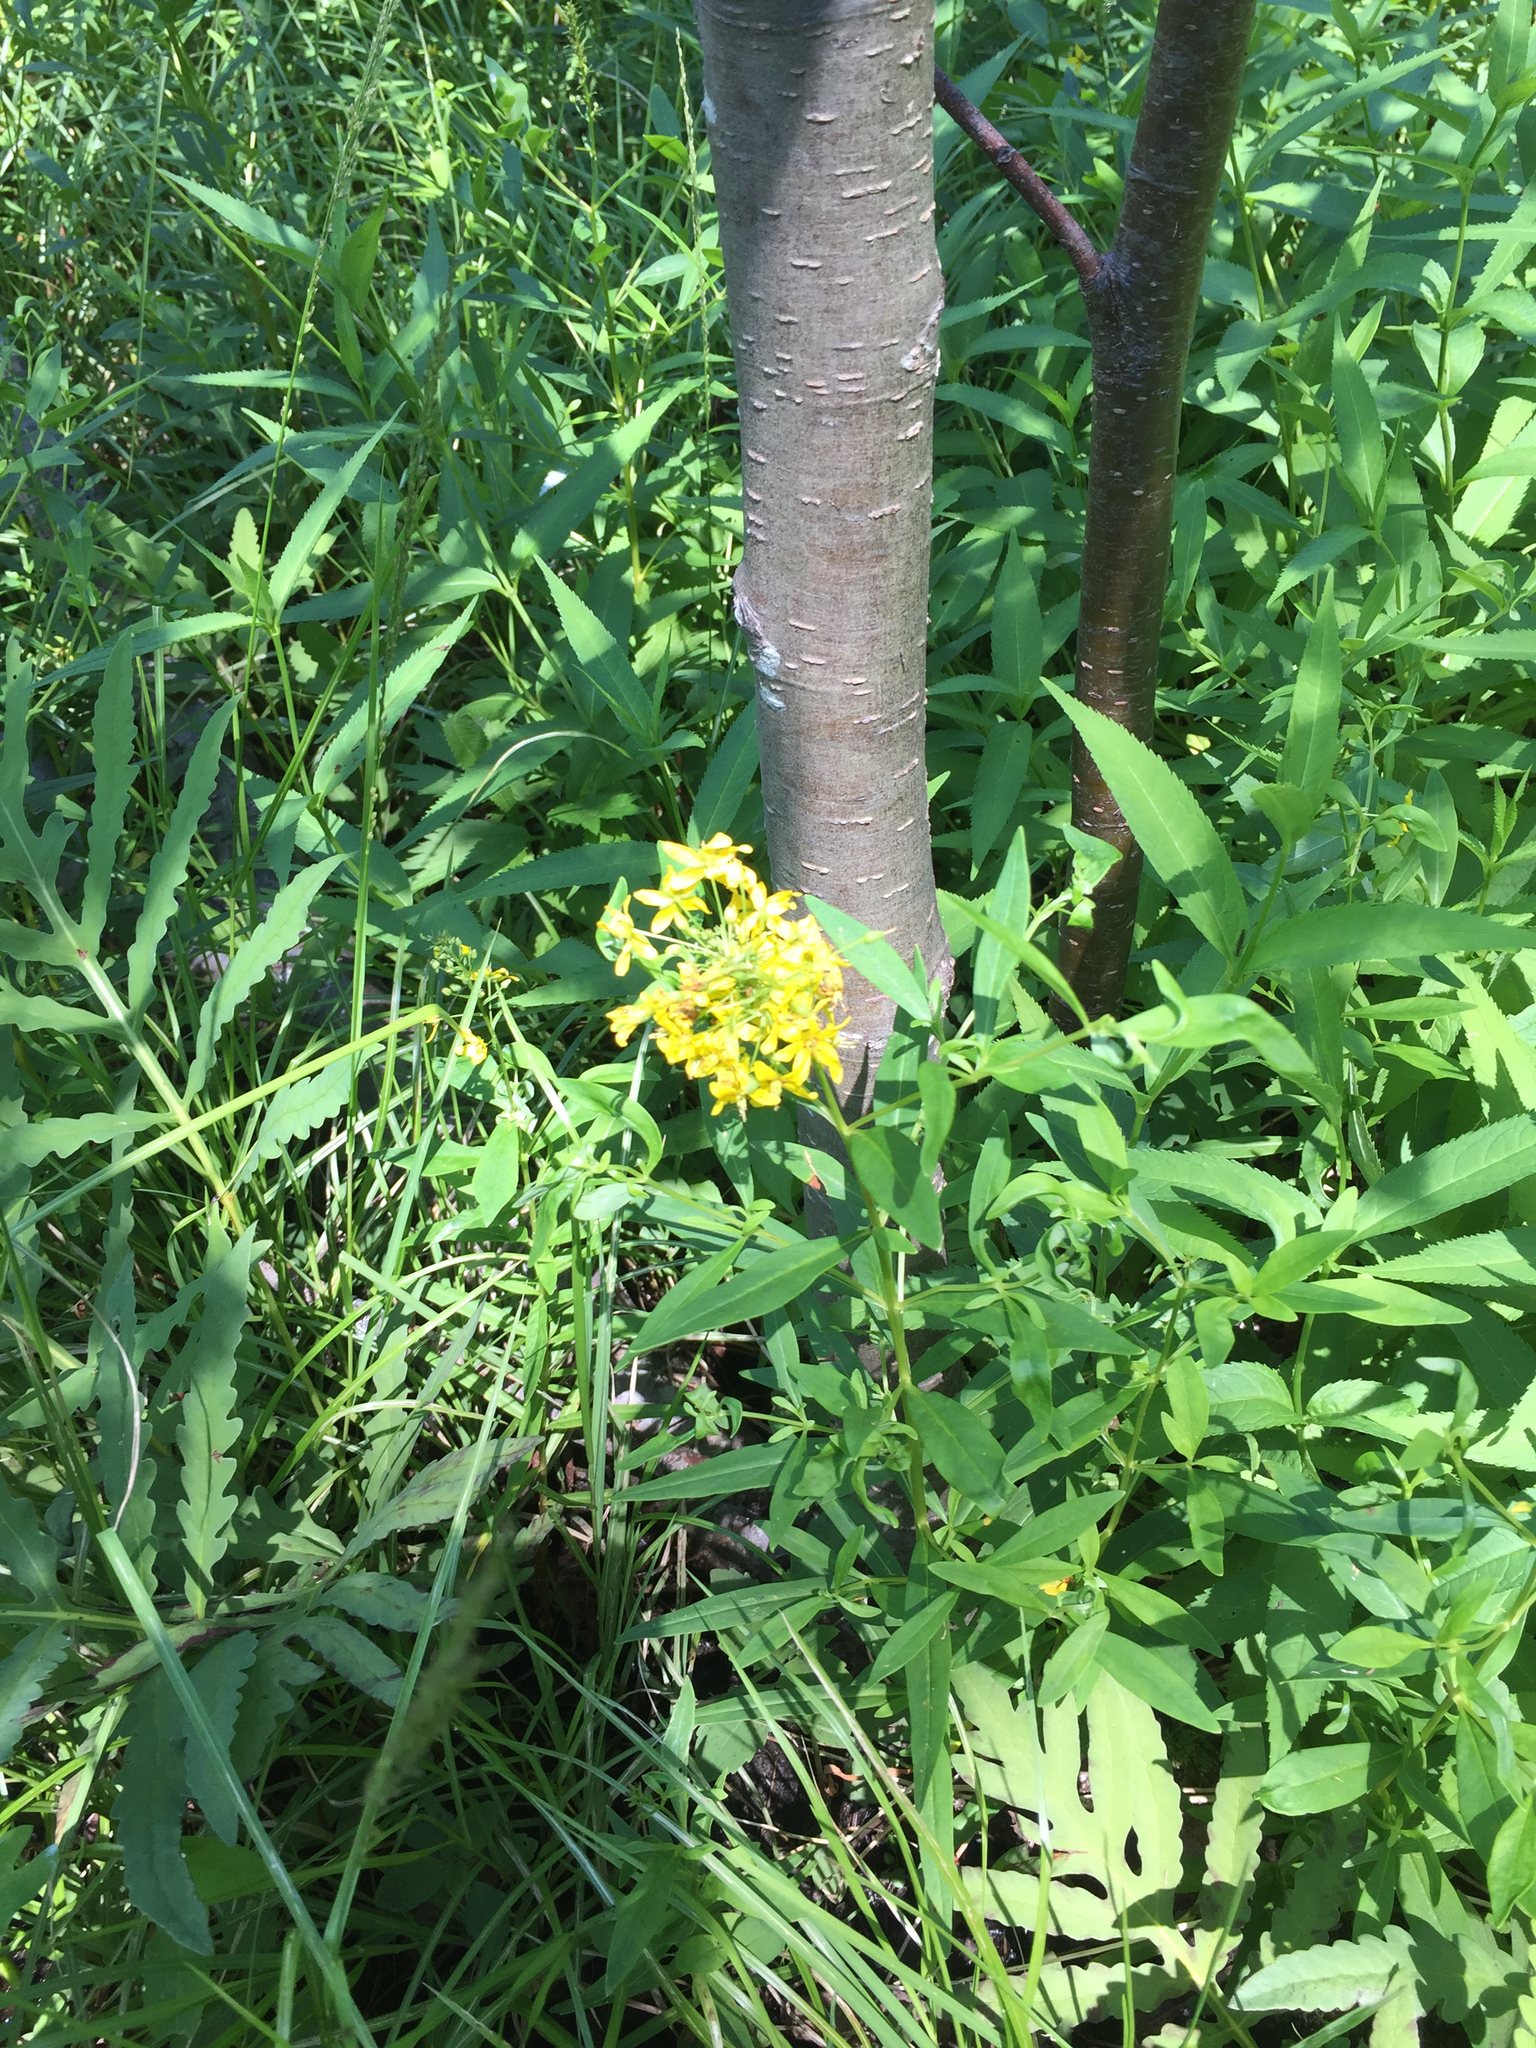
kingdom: Plantae
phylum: Tracheophyta
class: Magnoliopsida
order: Ericales
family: Primulaceae
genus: Lysimachia
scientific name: Lysimachia terrestris
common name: Lake loosestrife
